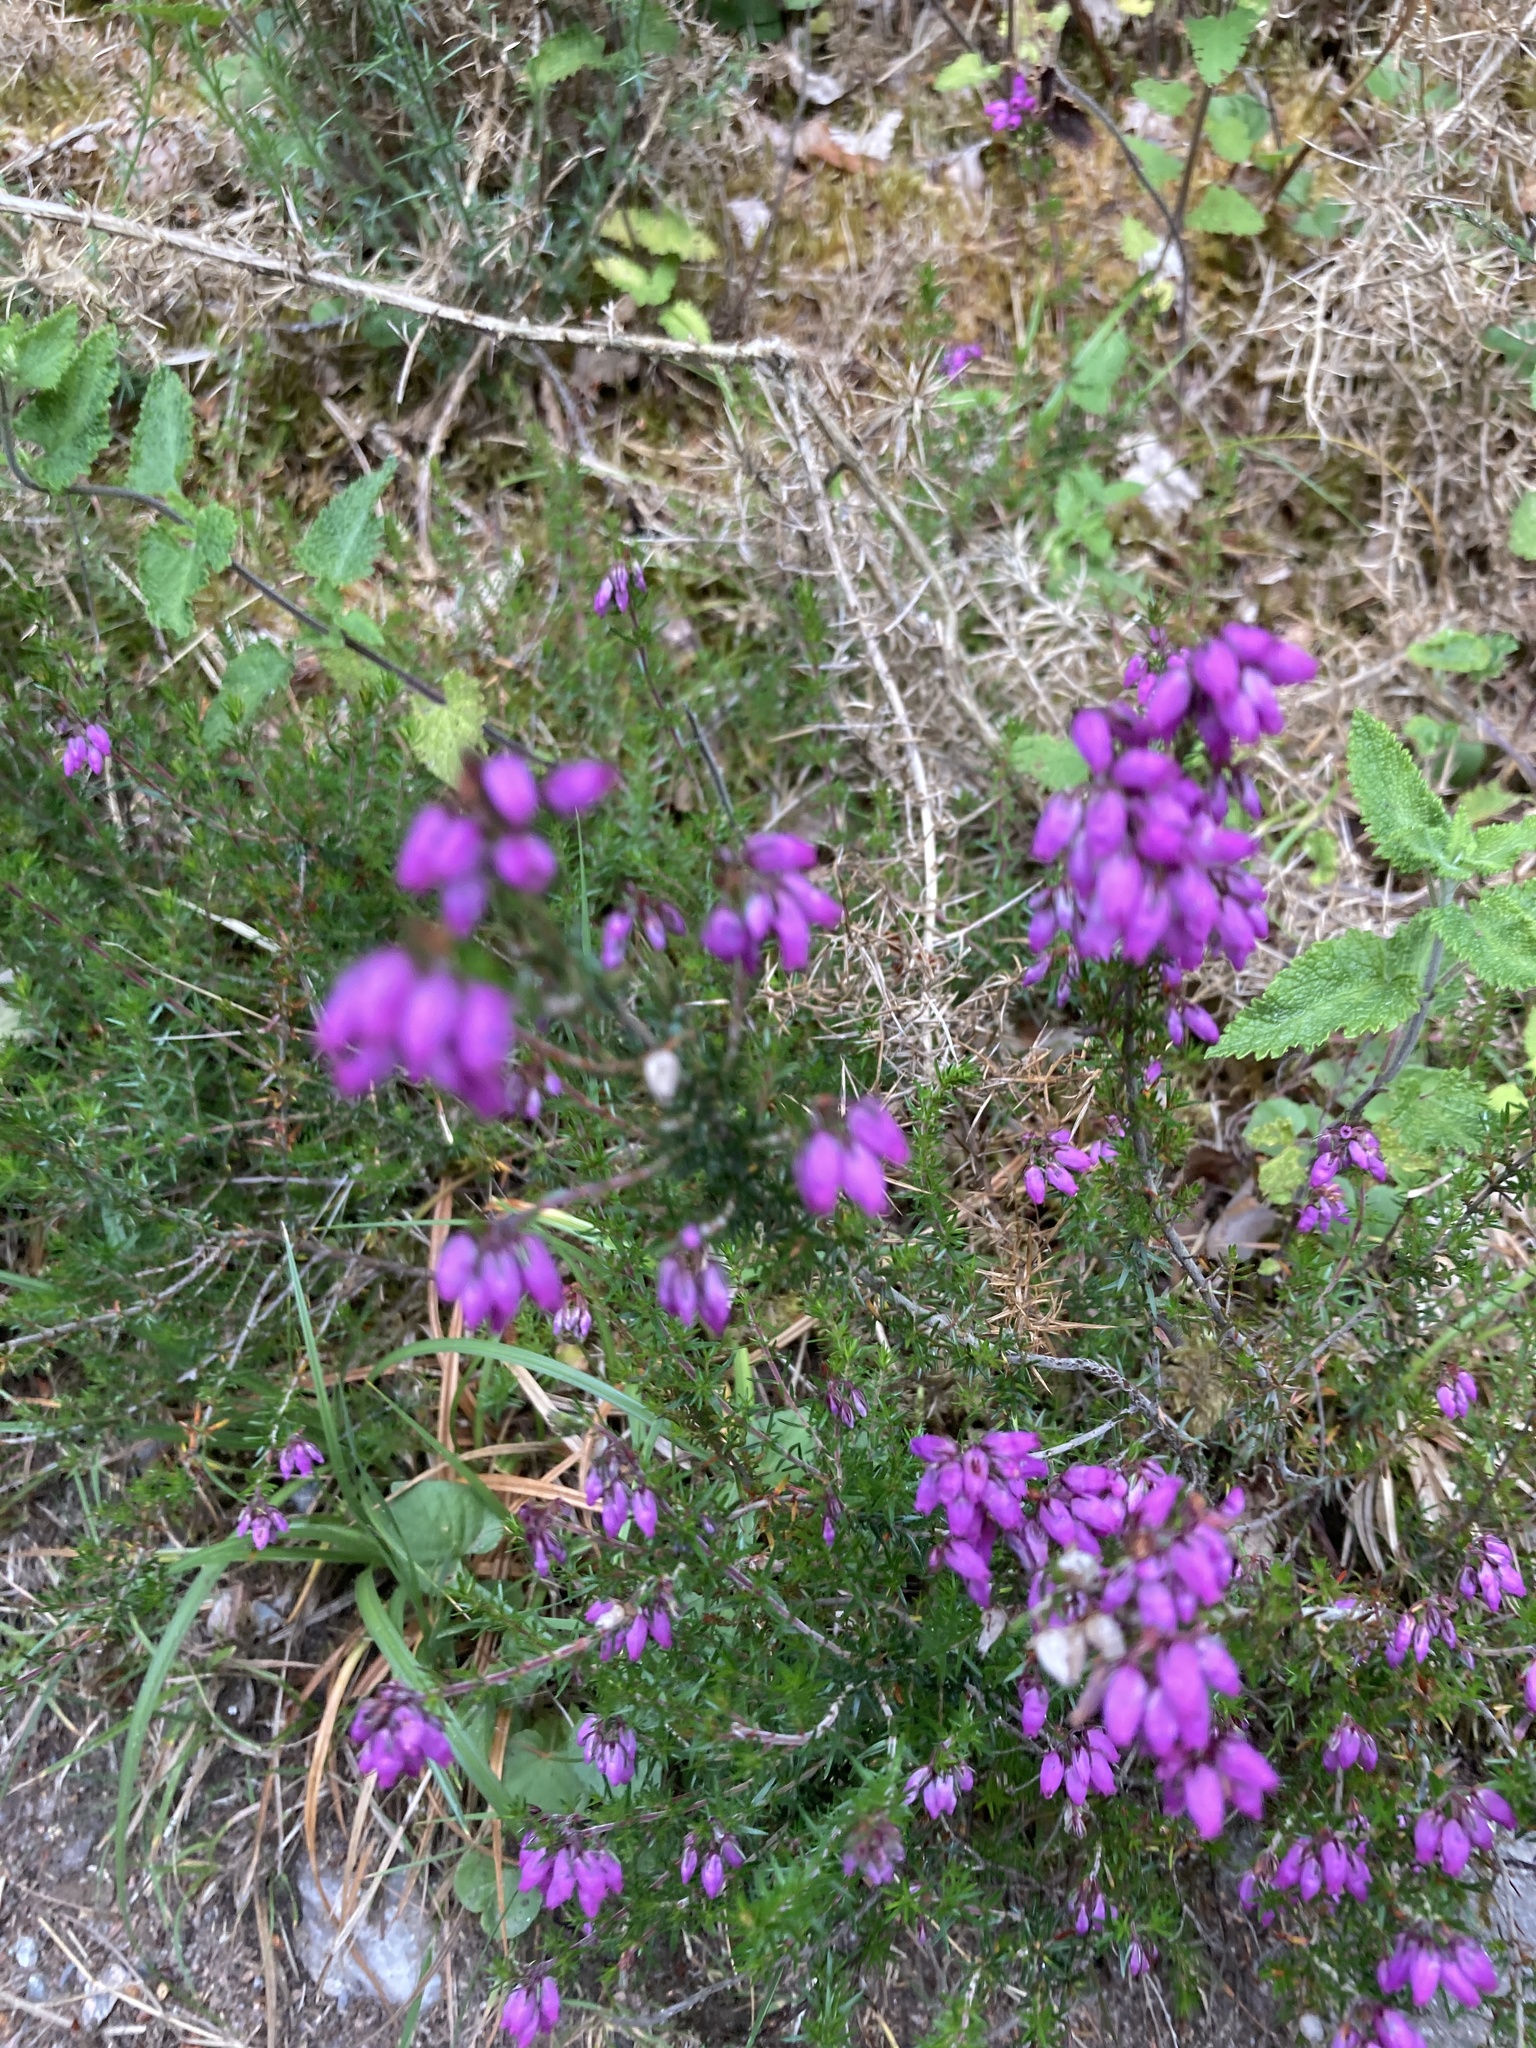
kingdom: Plantae
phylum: Tracheophyta
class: Magnoliopsida
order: Ericales
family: Ericaceae
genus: Erica
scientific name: Erica cinerea
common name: Bell heather
